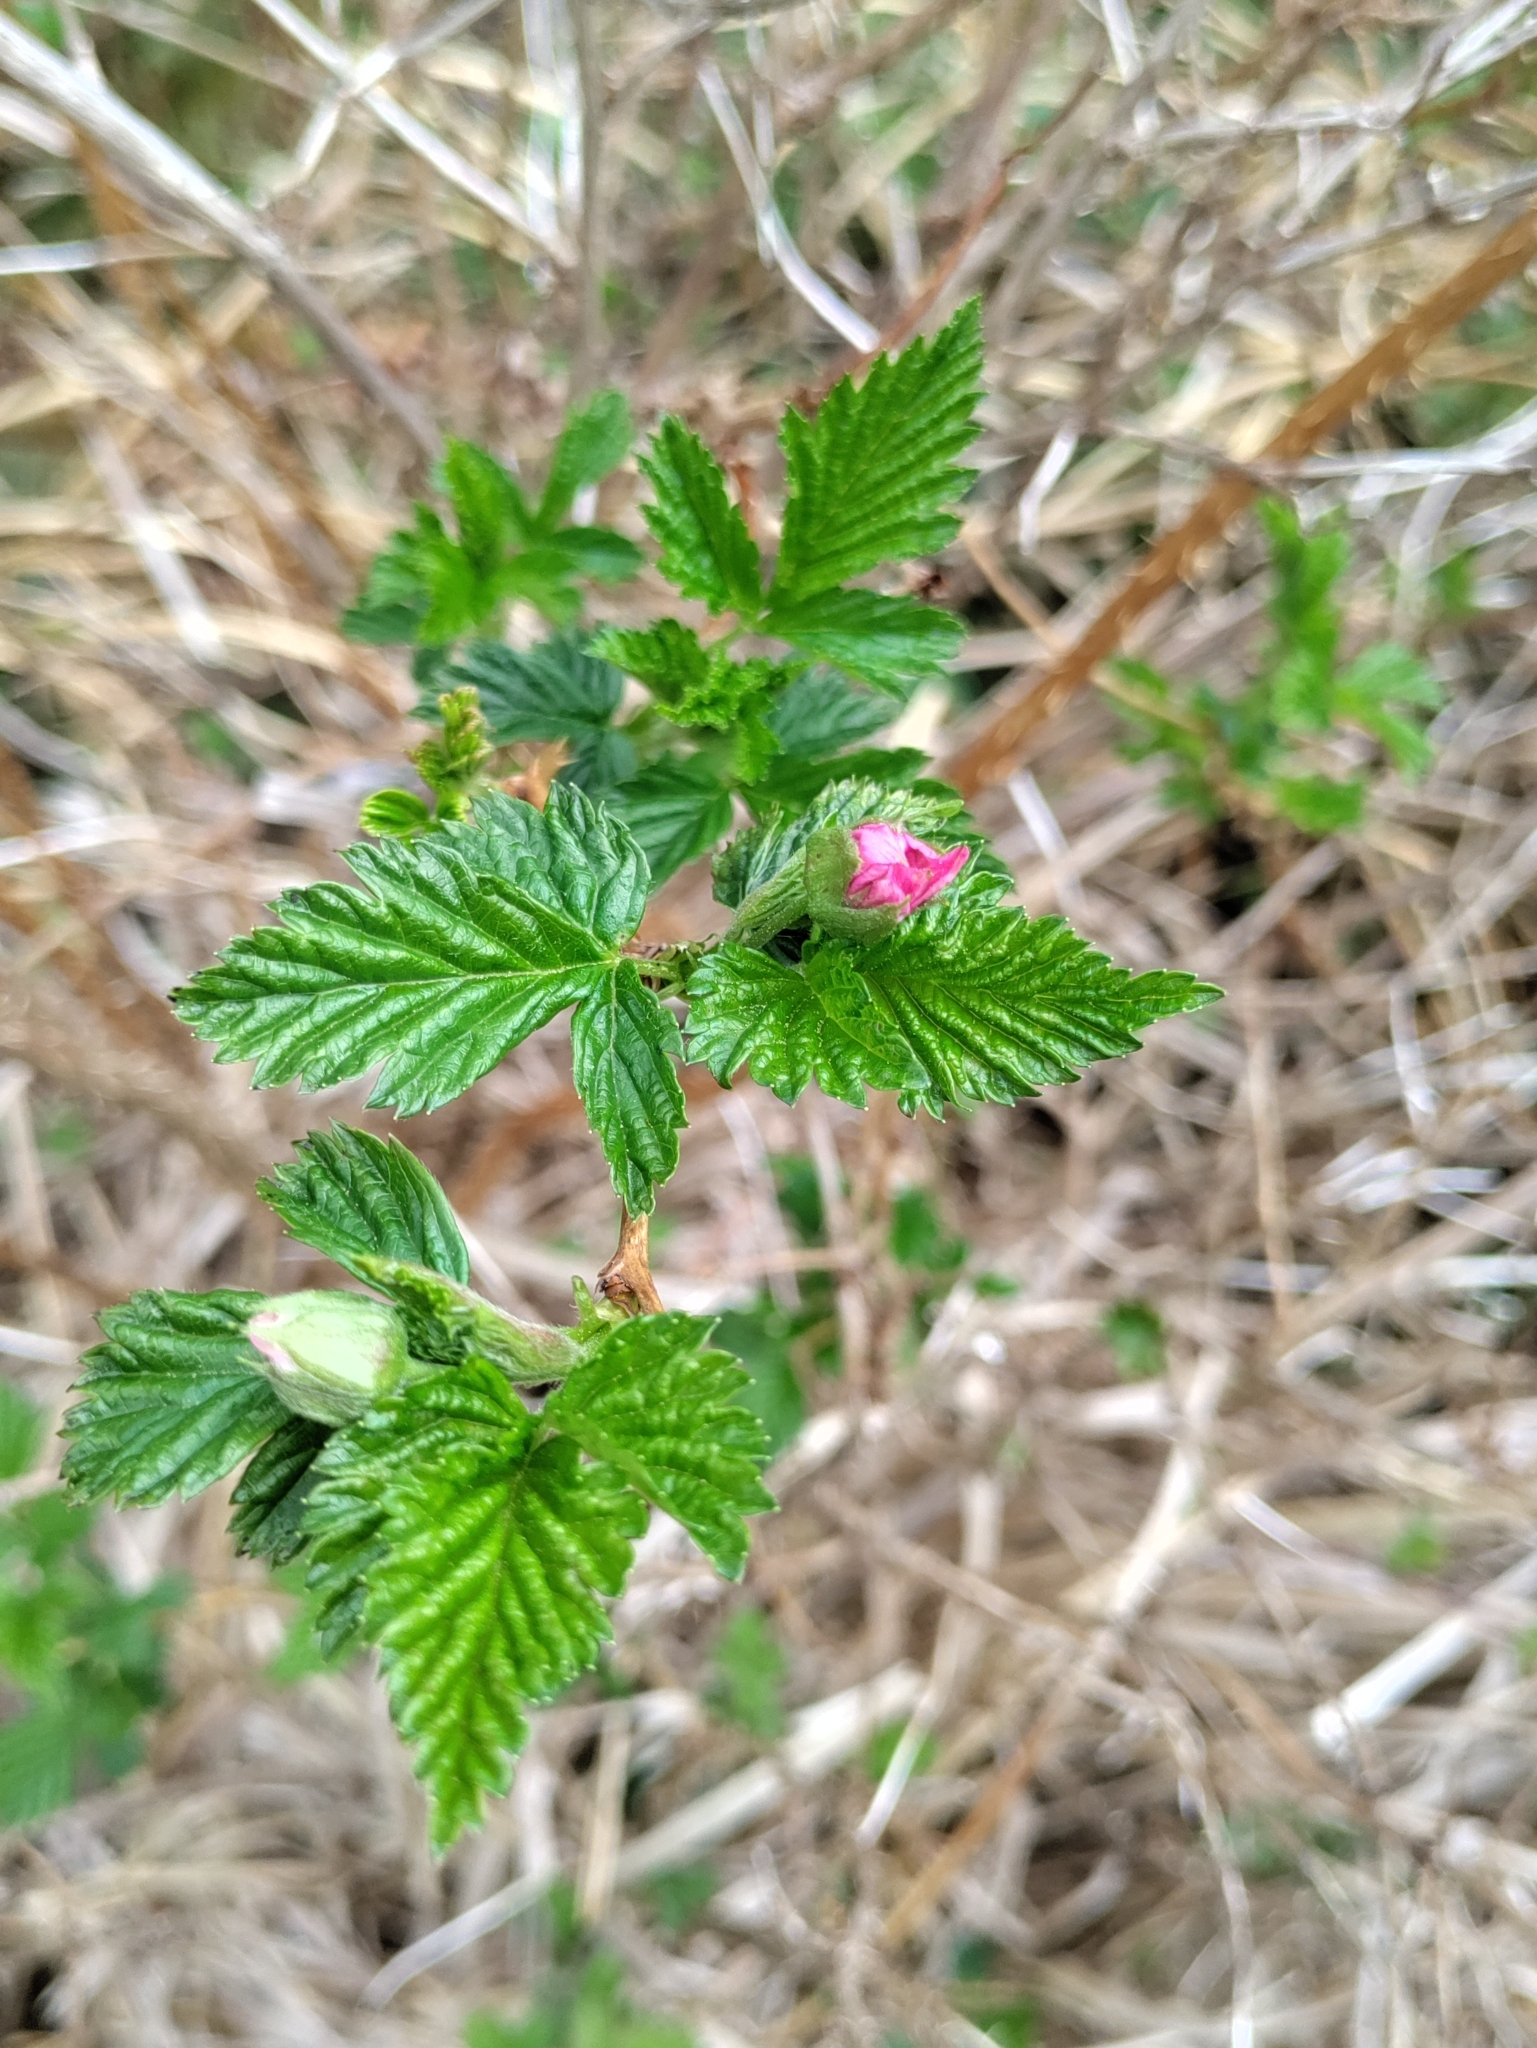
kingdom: Plantae
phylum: Tracheophyta
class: Magnoliopsida
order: Rosales
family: Rosaceae
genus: Rubus
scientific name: Rubus spectabilis
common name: Salmonberry
